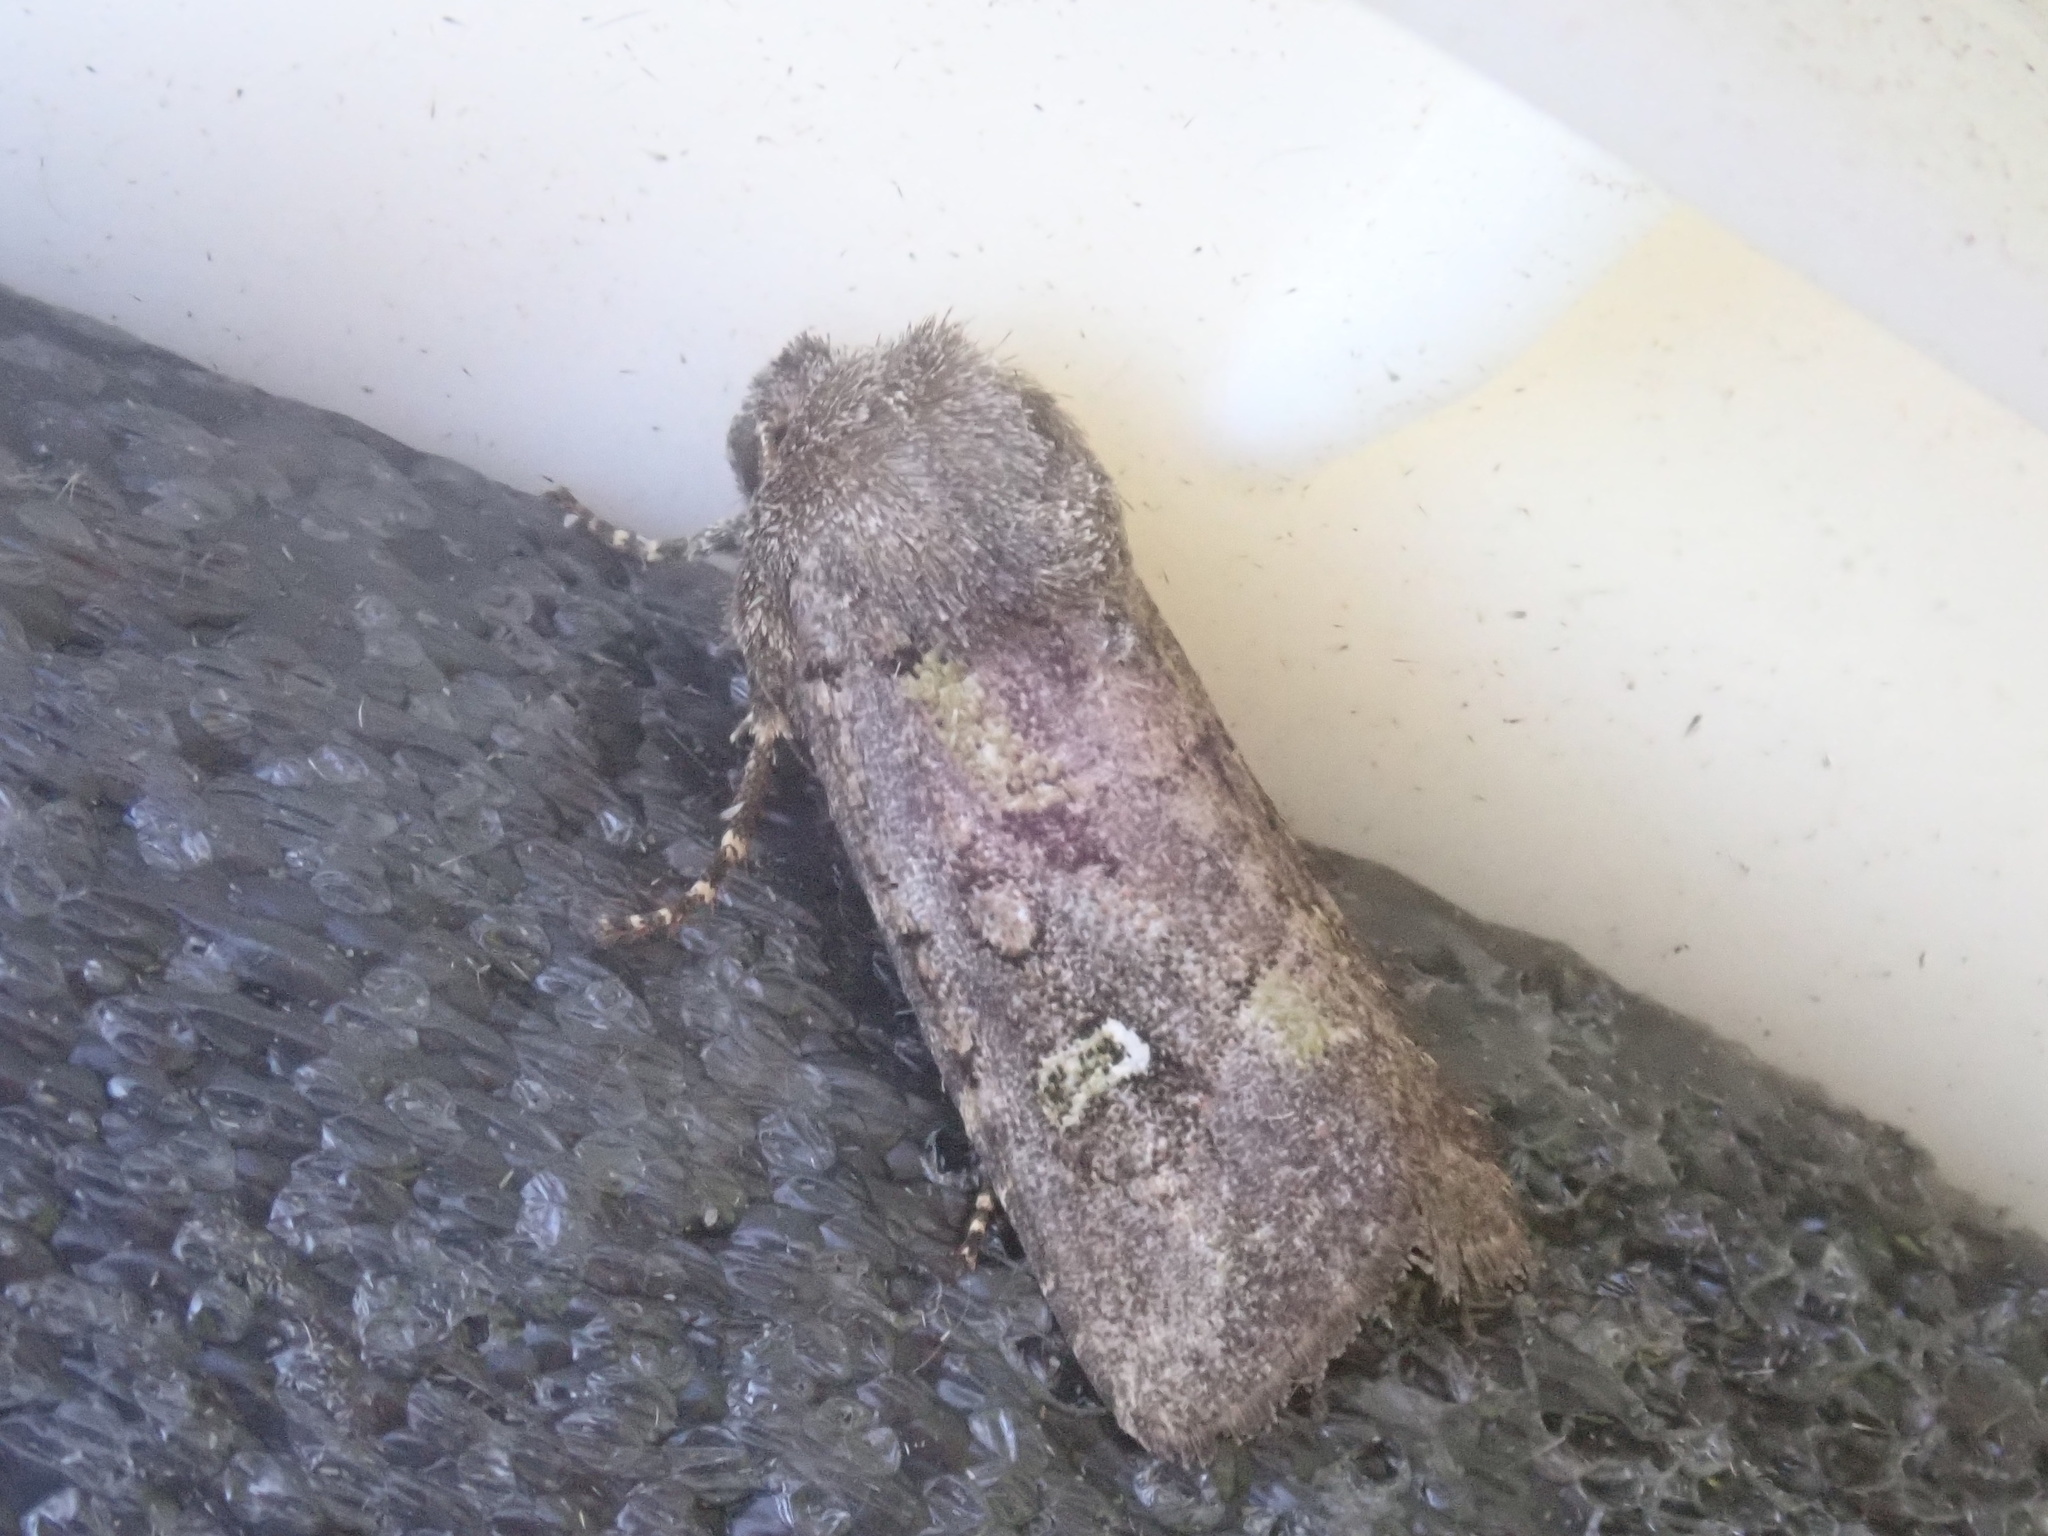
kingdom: Animalia
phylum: Arthropoda
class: Insecta
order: Lepidoptera
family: Noctuidae
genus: Lacinipolia
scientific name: Lacinipolia renigera
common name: Kidney-spotted minor
